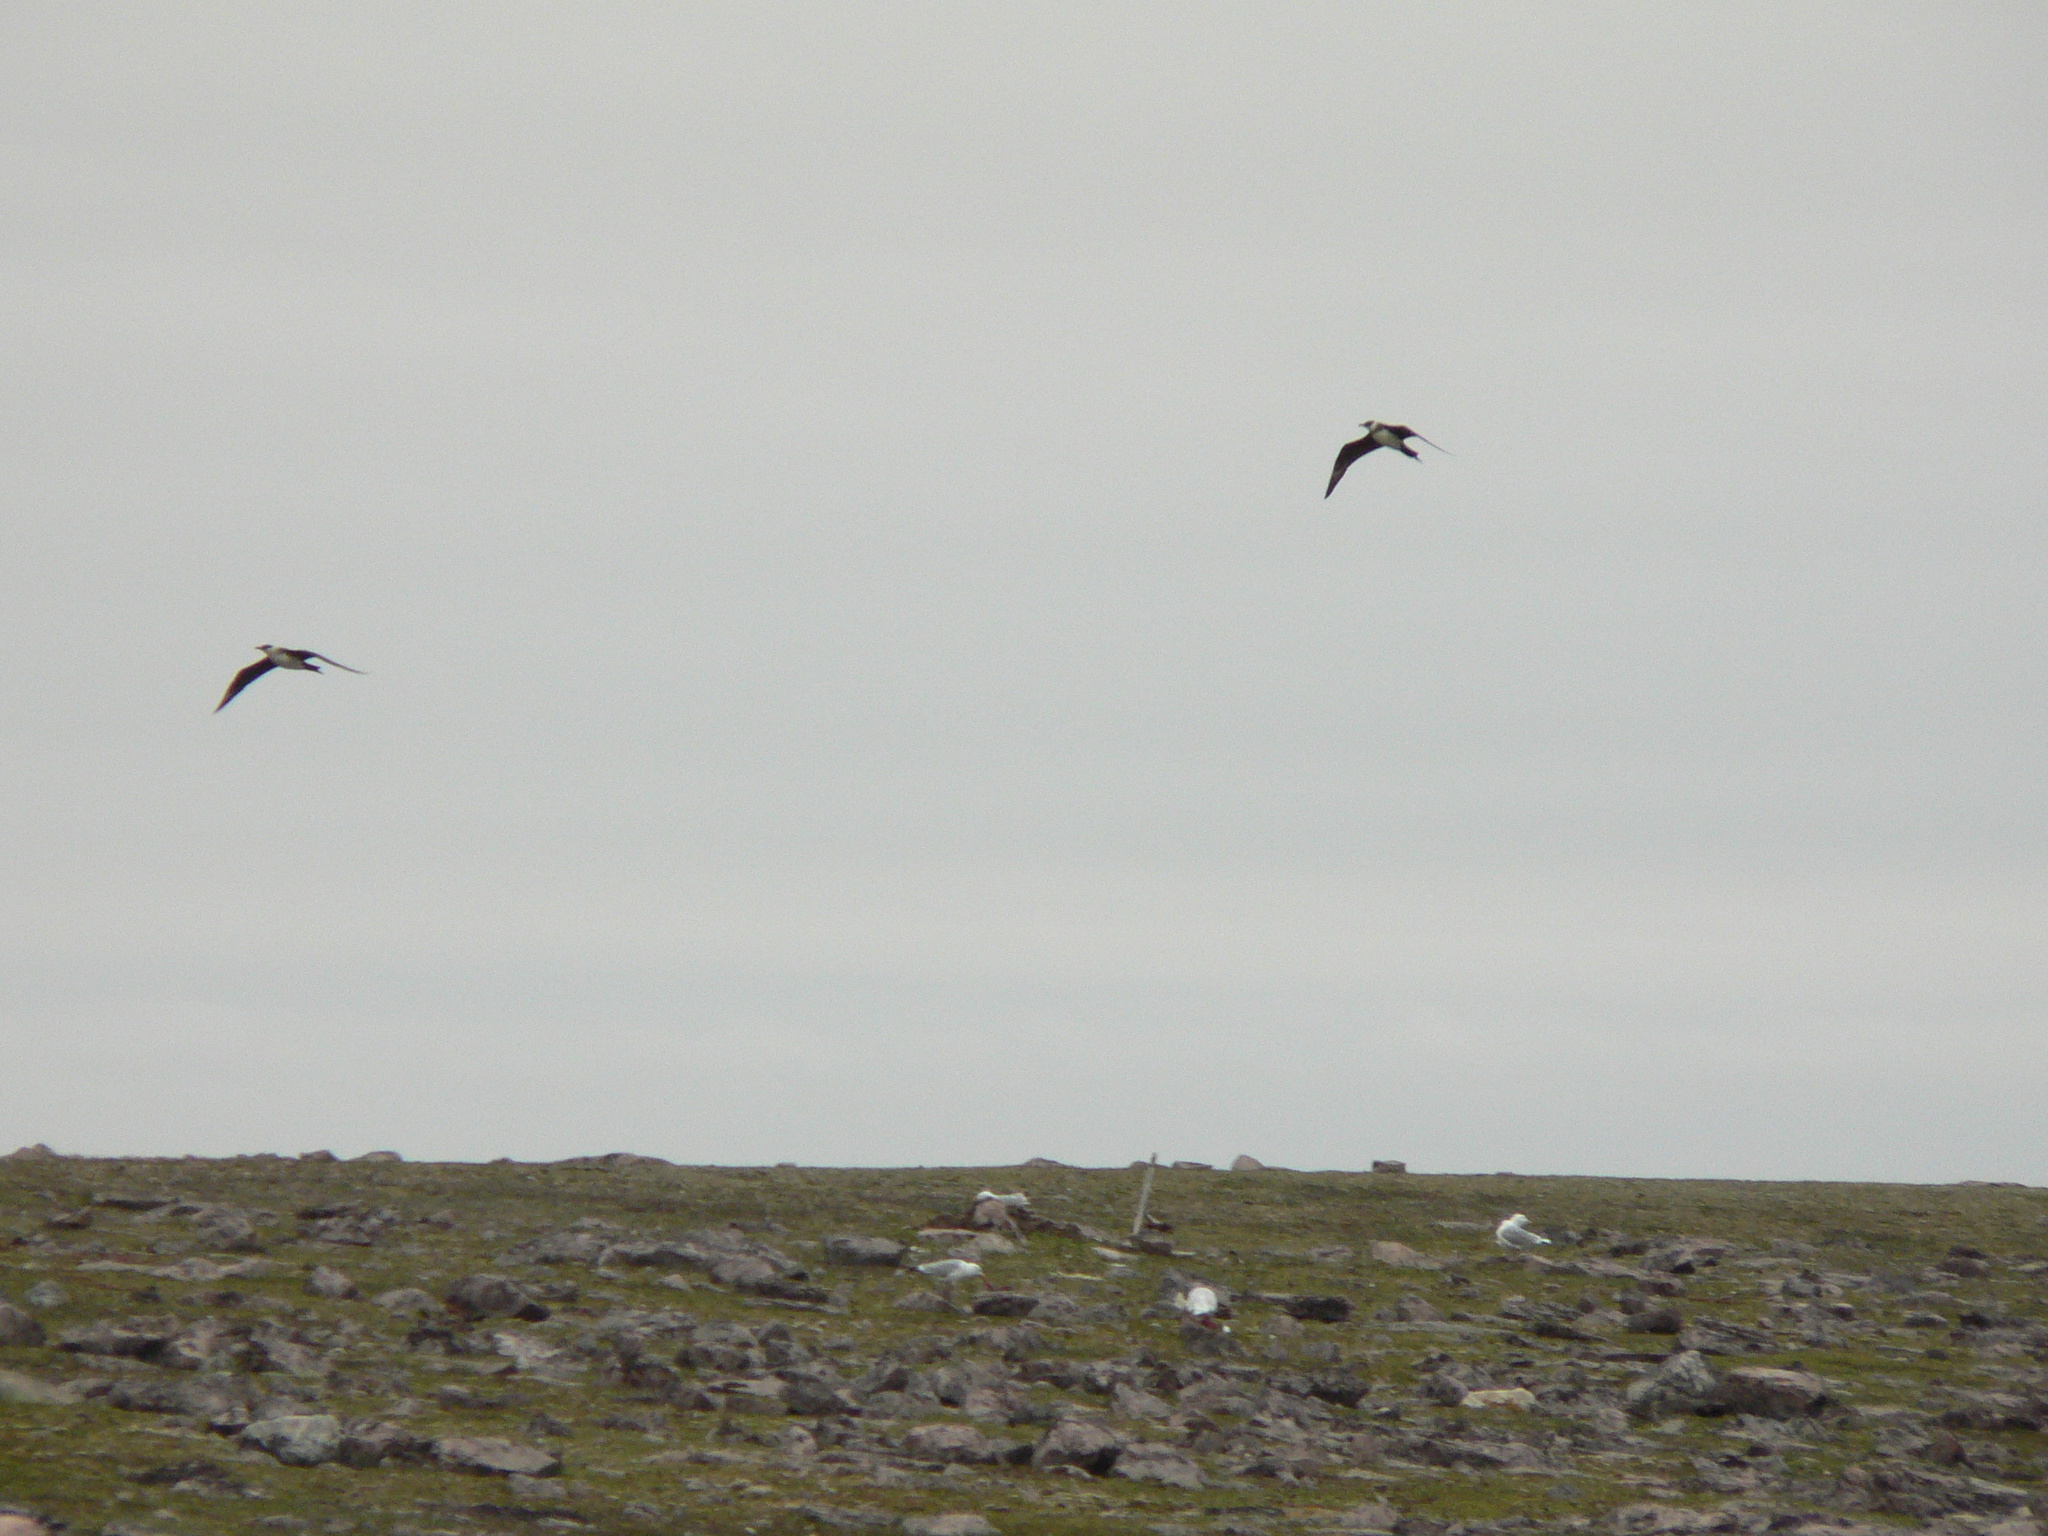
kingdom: Animalia
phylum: Chordata
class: Aves
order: Charadriiformes
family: Stercorariidae
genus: Stercorarius
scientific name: Stercorarius parasiticus
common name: Parasitic jaeger
